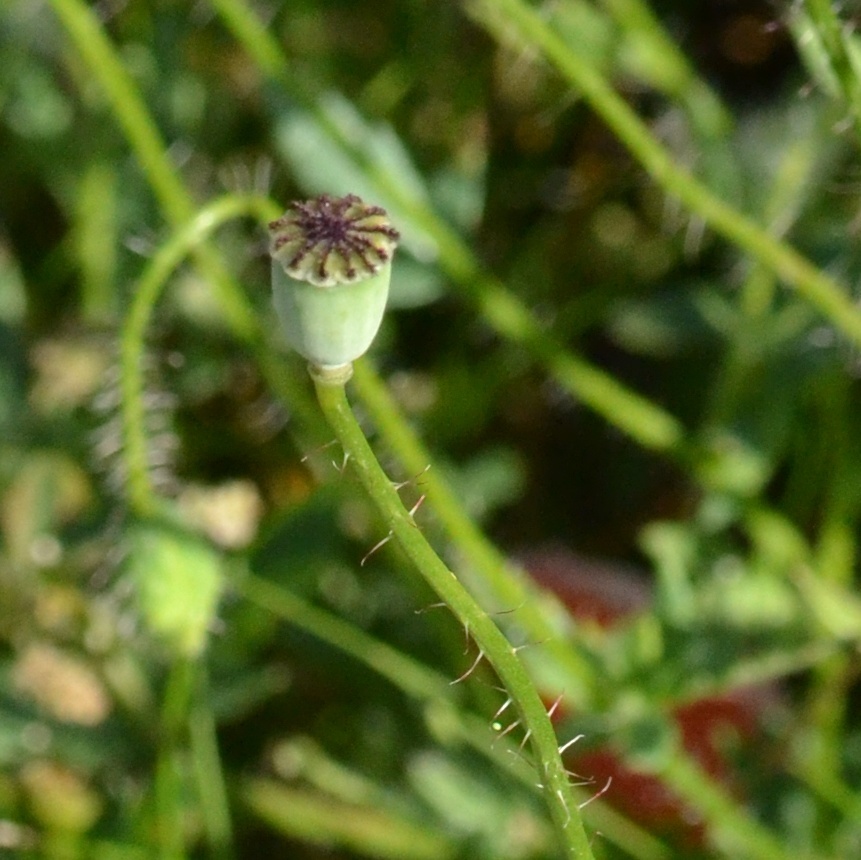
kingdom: Plantae
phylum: Tracheophyta
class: Magnoliopsida
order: Ranunculales
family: Papaveraceae
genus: Papaver
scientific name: Papaver rhoeas
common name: Corn poppy
